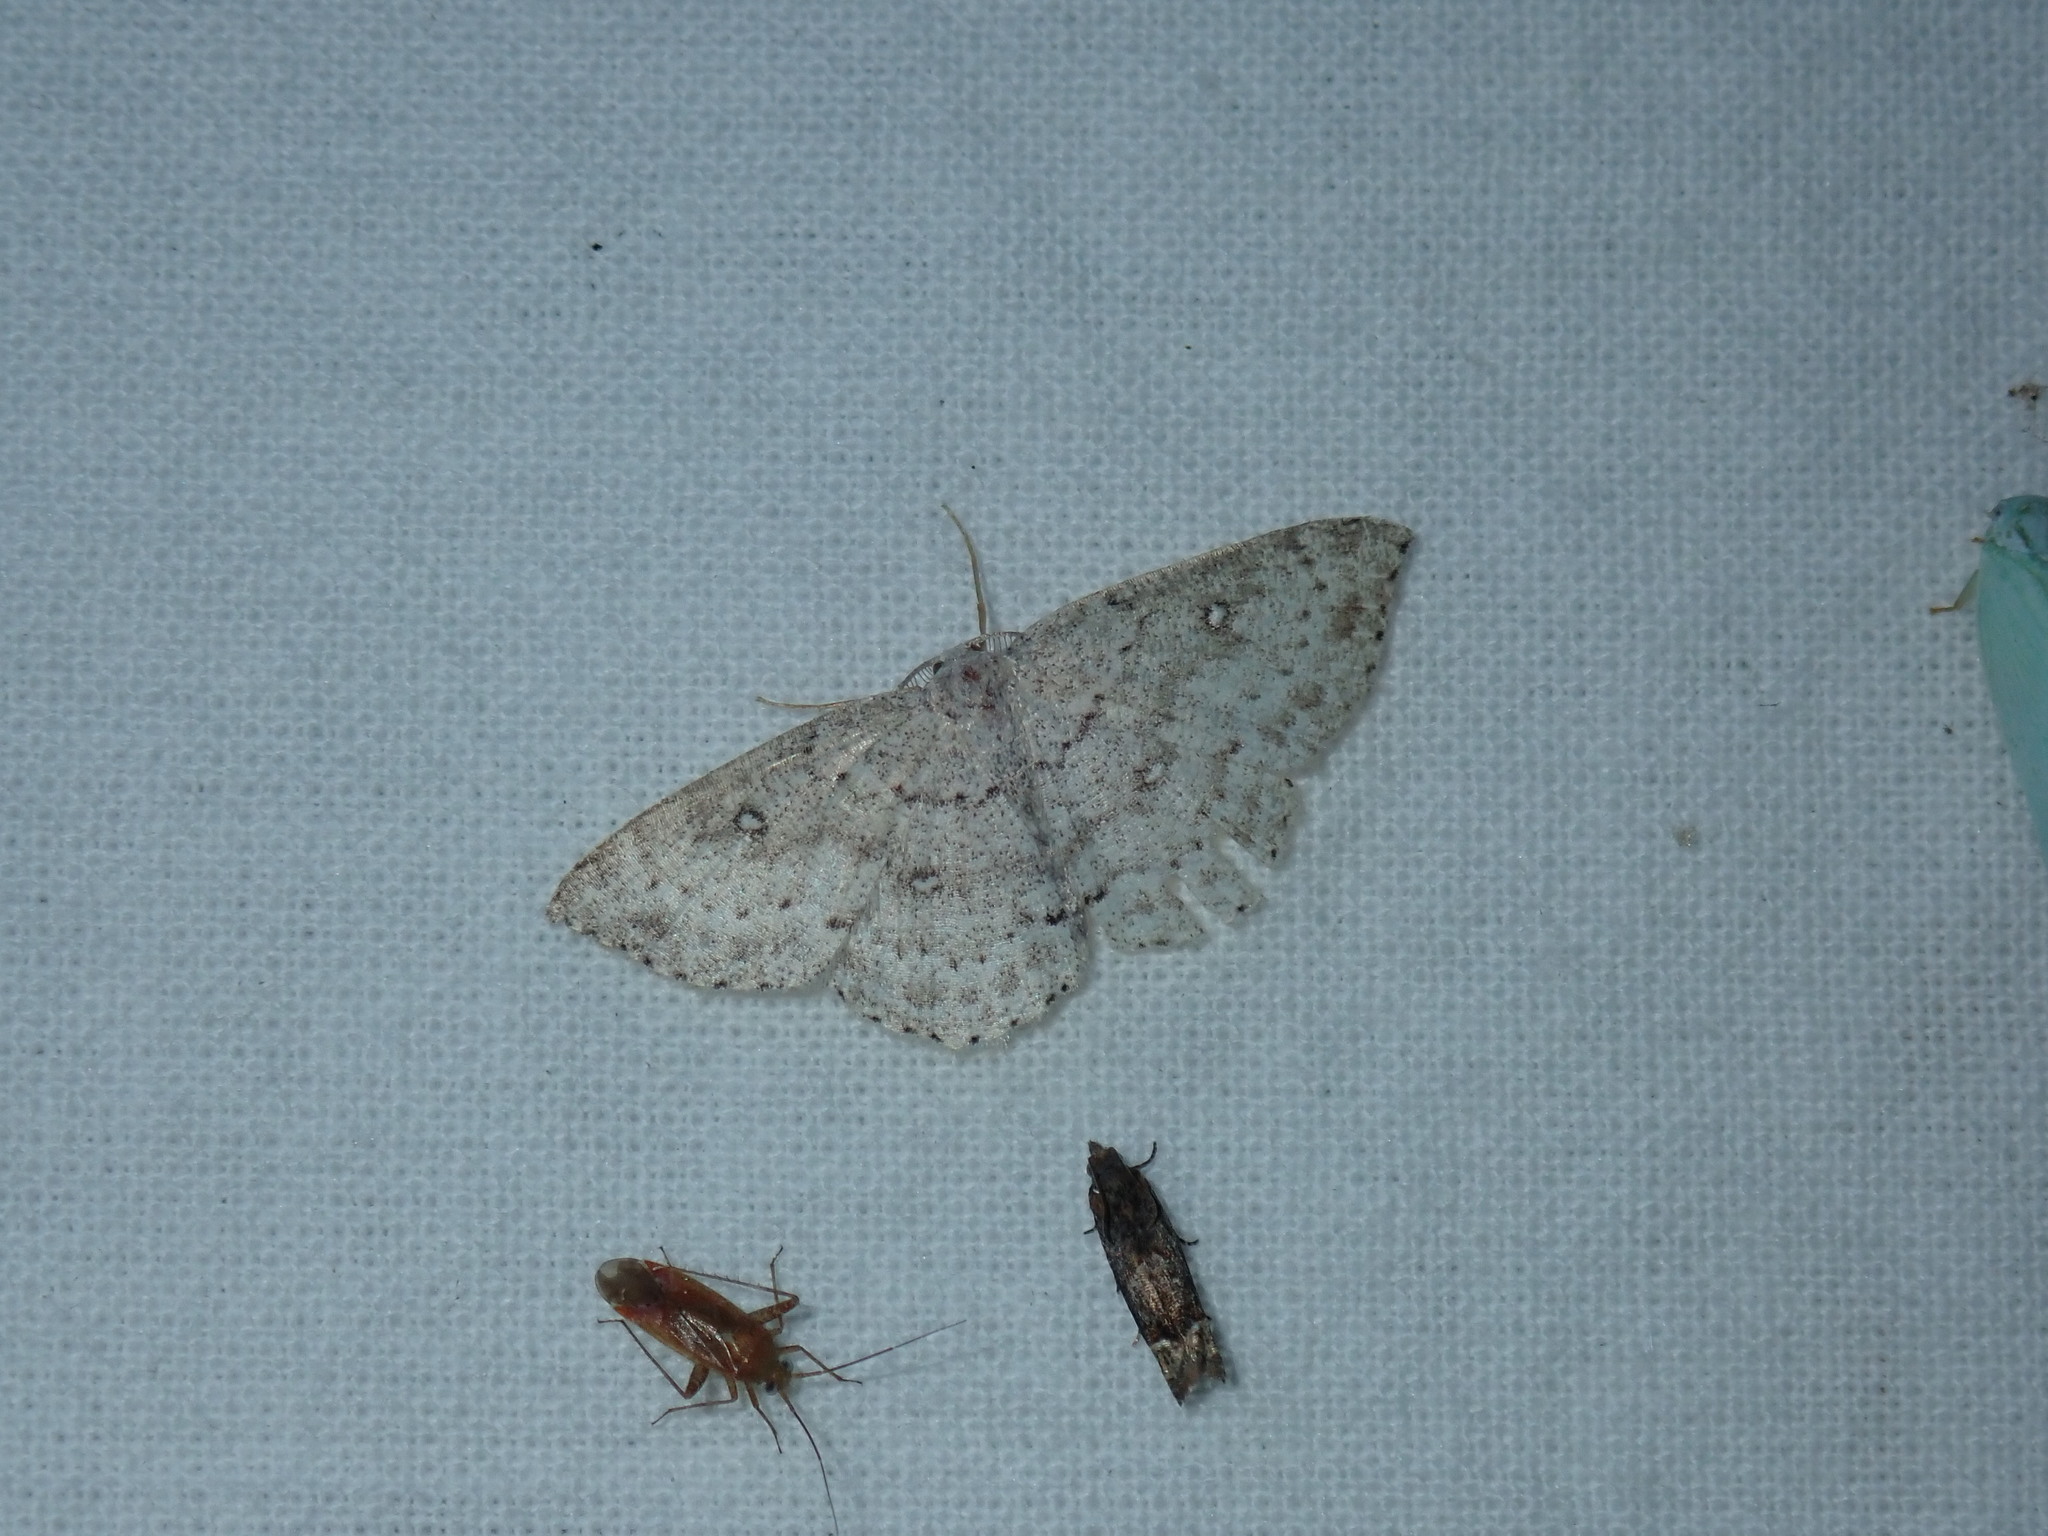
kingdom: Animalia
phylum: Arthropoda
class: Insecta
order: Lepidoptera
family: Geometridae
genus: Cyclophora
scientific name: Cyclophora pendulinaria
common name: Sweet fern geometer
